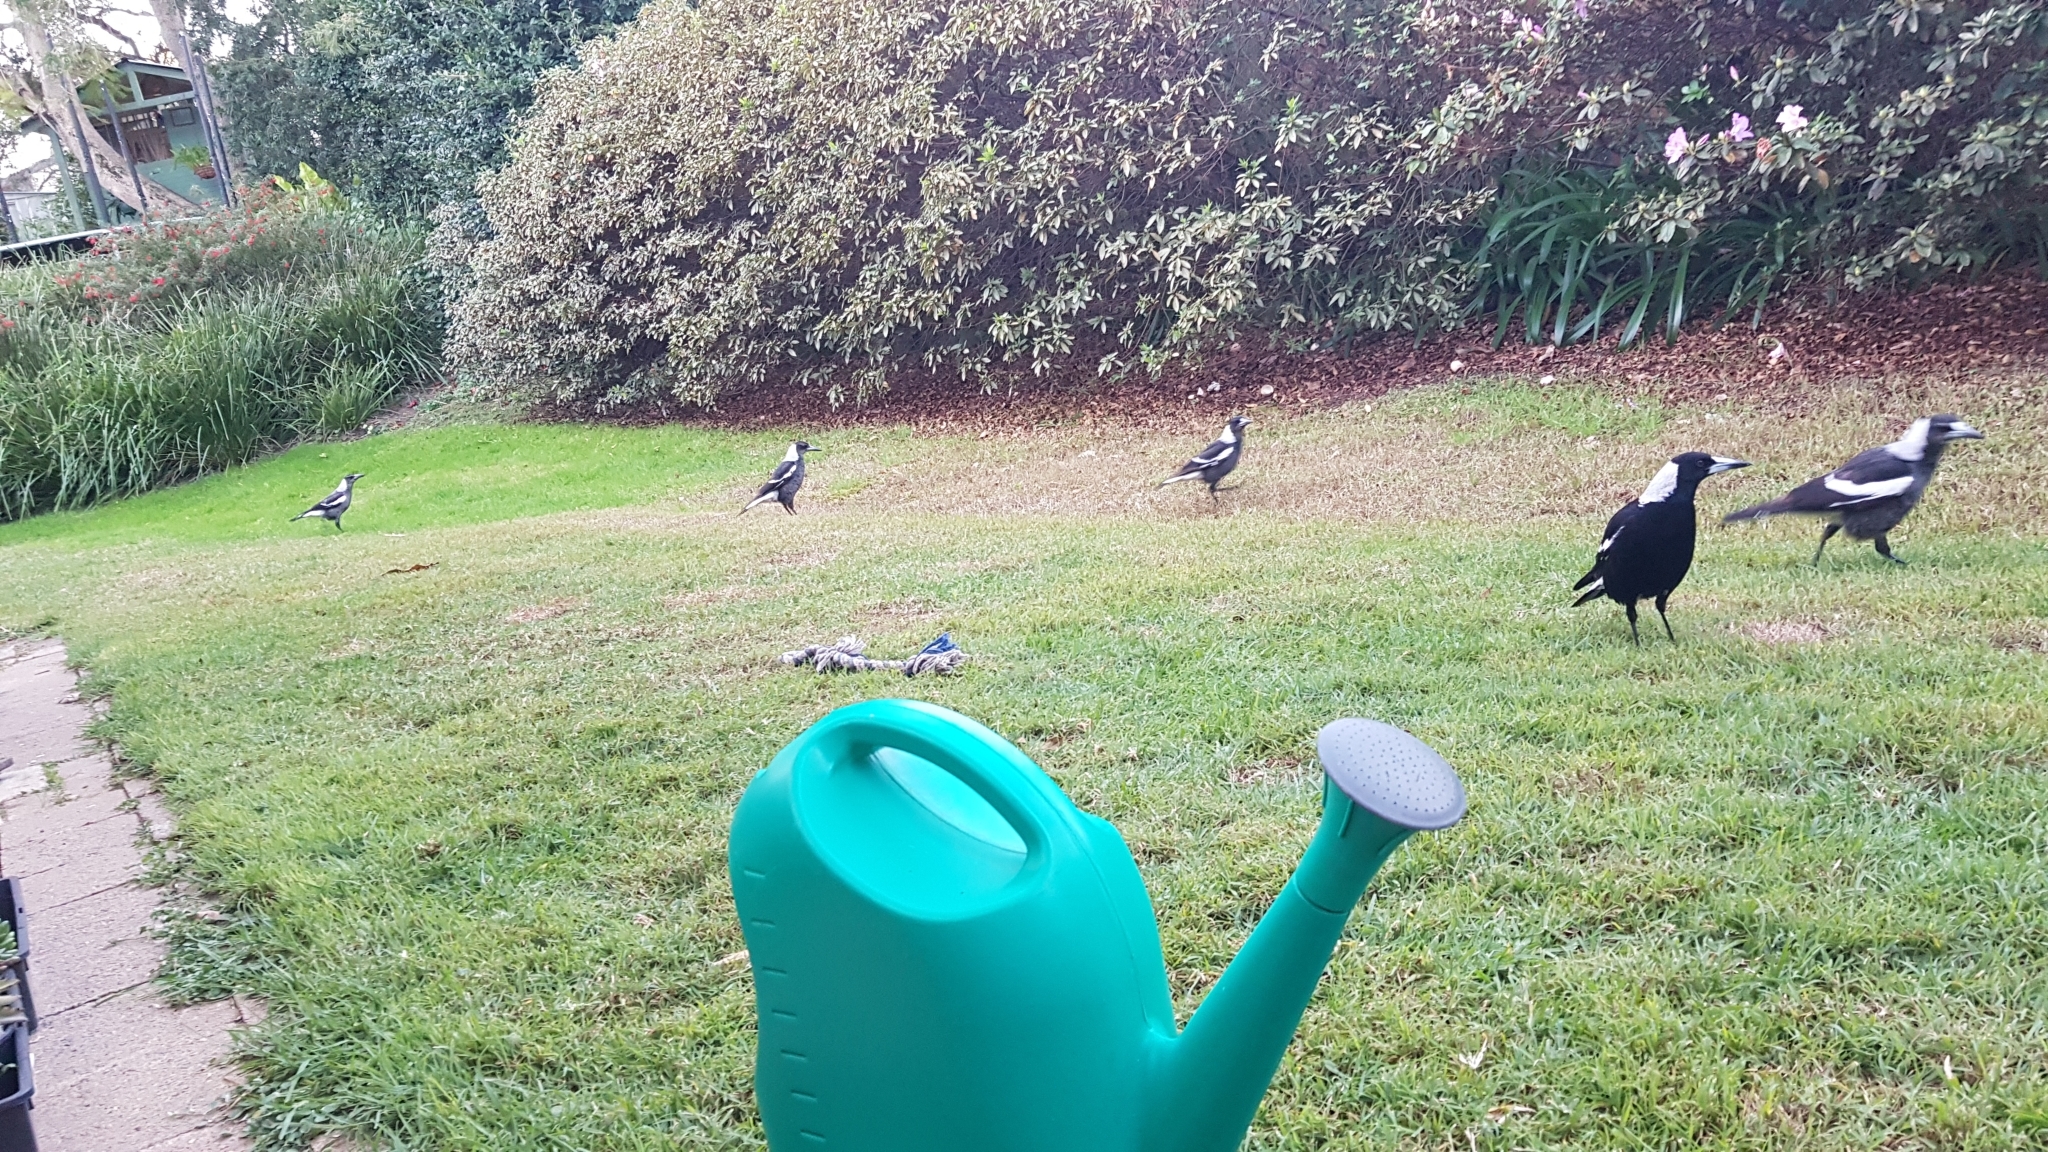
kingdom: Animalia
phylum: Chordata
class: Aves
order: Passeriformes
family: Cracticidae
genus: Gymnorhina
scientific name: Gymnorhina tibicen
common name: Australian magpie
